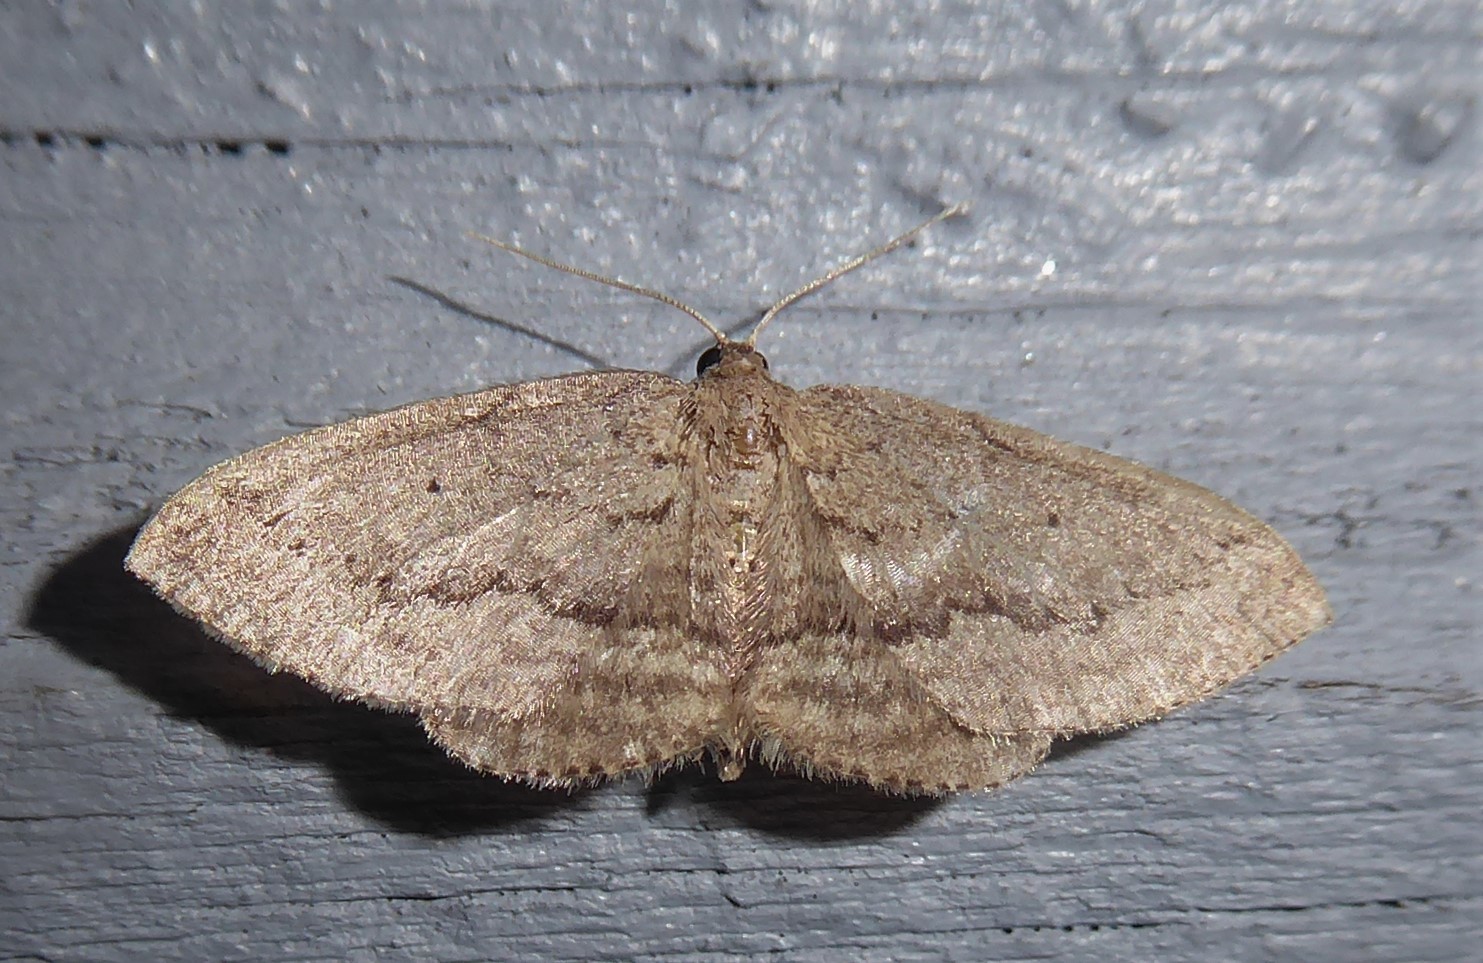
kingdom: Animalia
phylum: Arthropoda
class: Insecta
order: Lepidoptera
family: Geometridae
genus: Poecilasthena
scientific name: Poecilasthena schistaria
